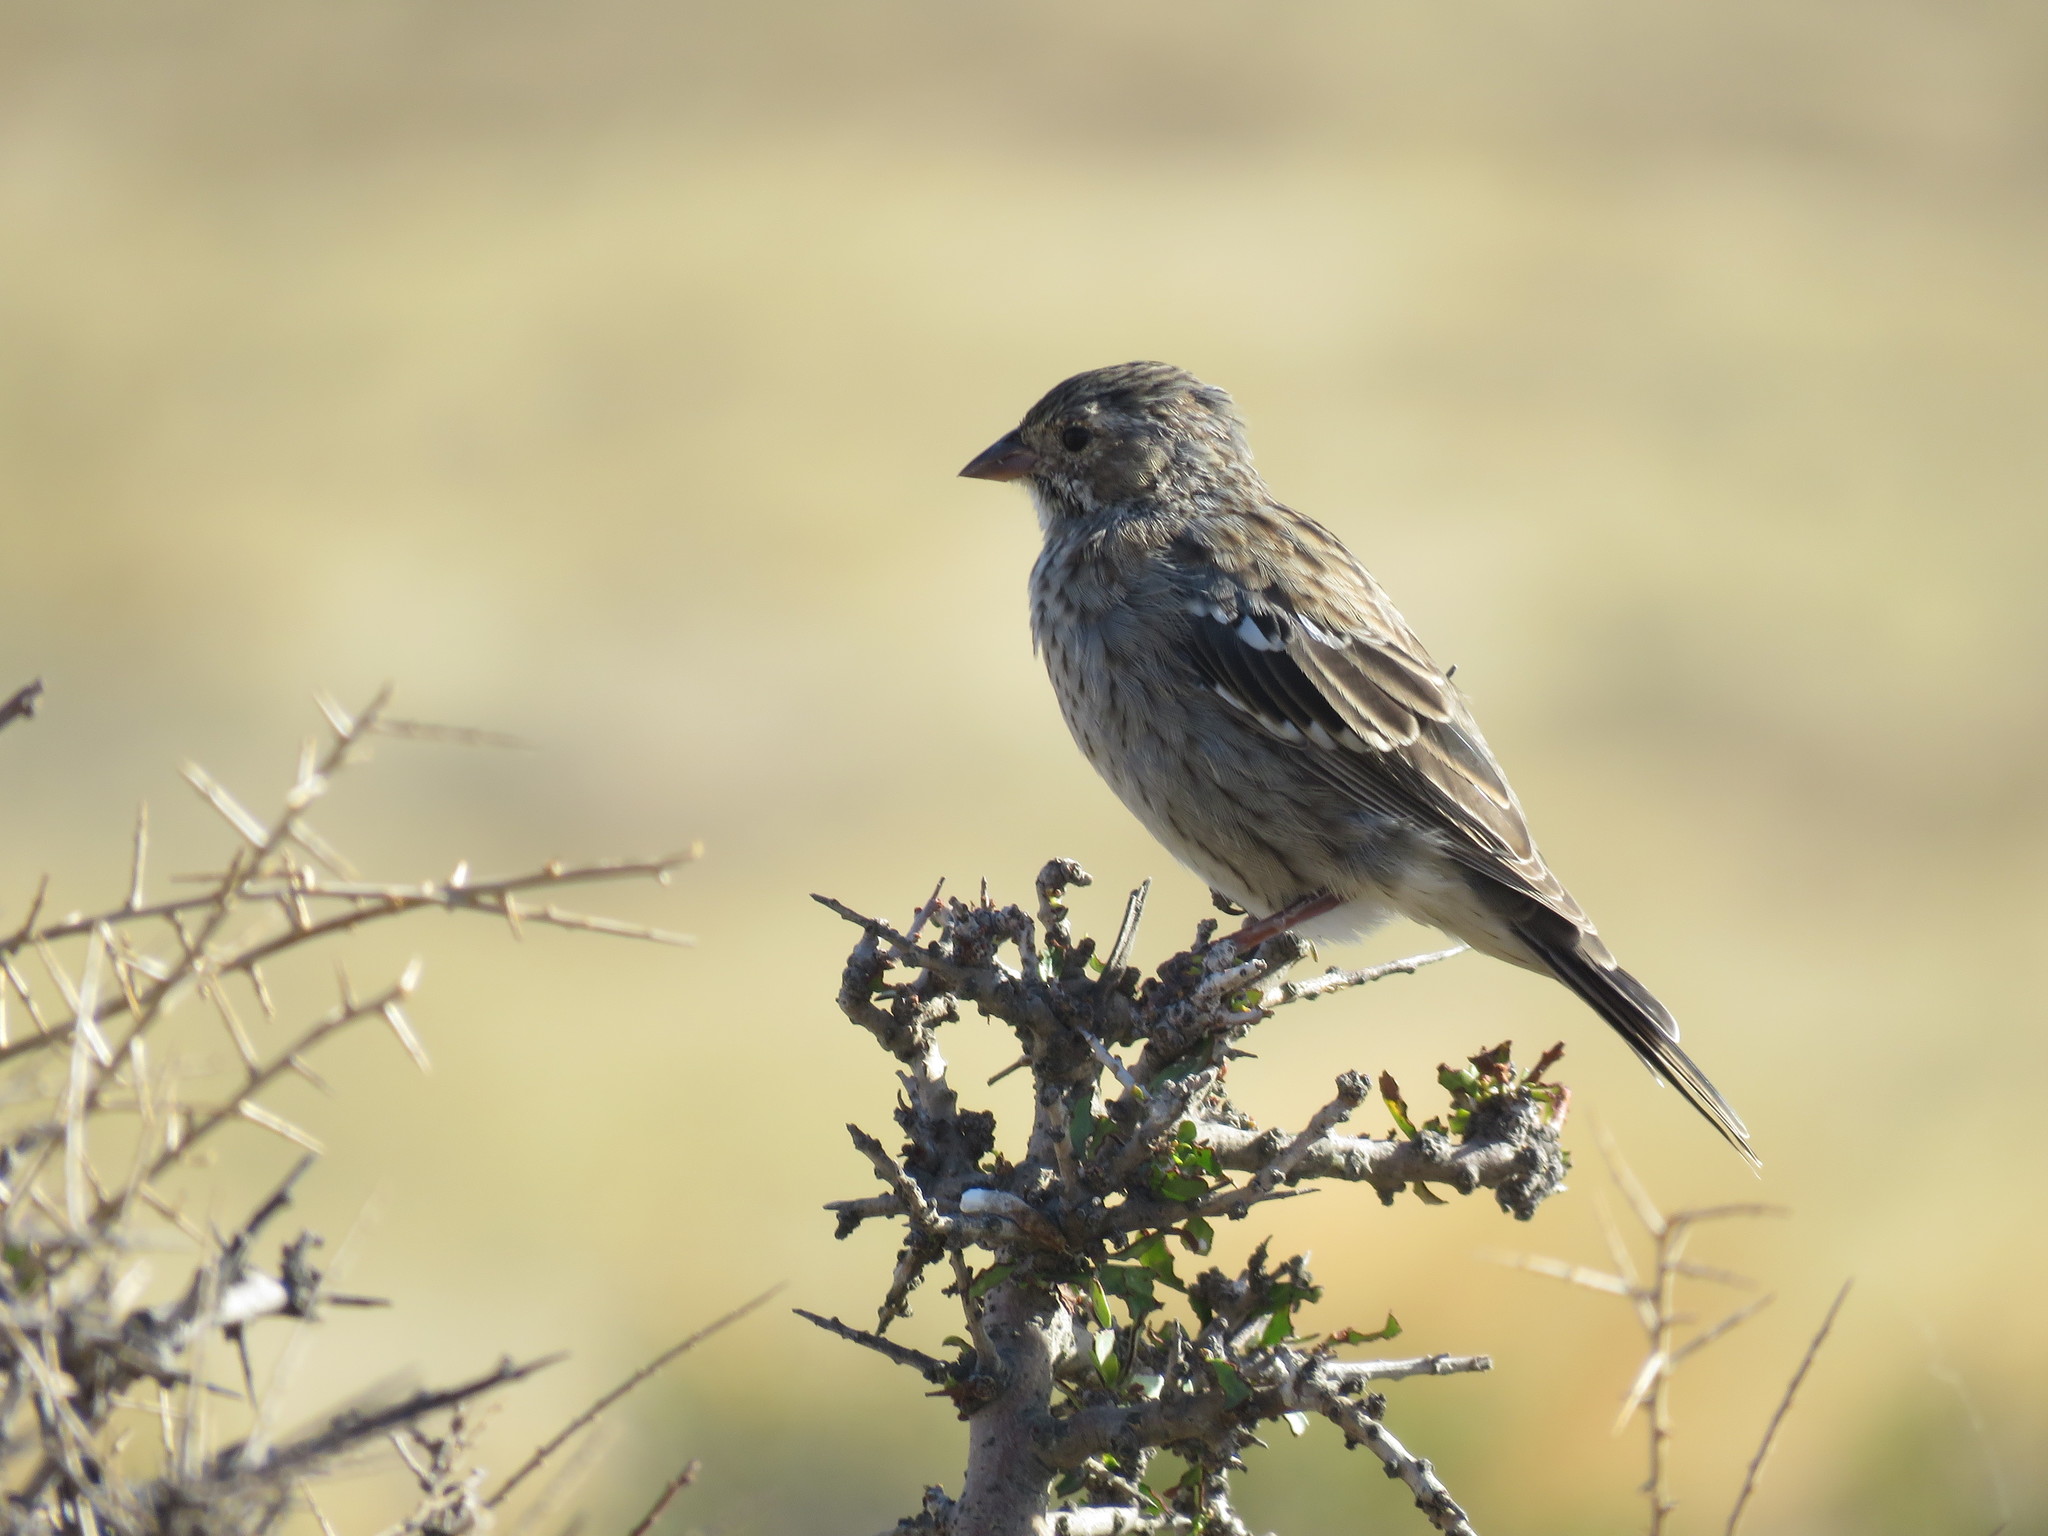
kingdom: Animalia
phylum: Chordata
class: Aves
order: Passeriformes
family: Thraupidae
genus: Rhopospina
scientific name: Rhopospina fruticeti
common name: Mourning sierra finch
